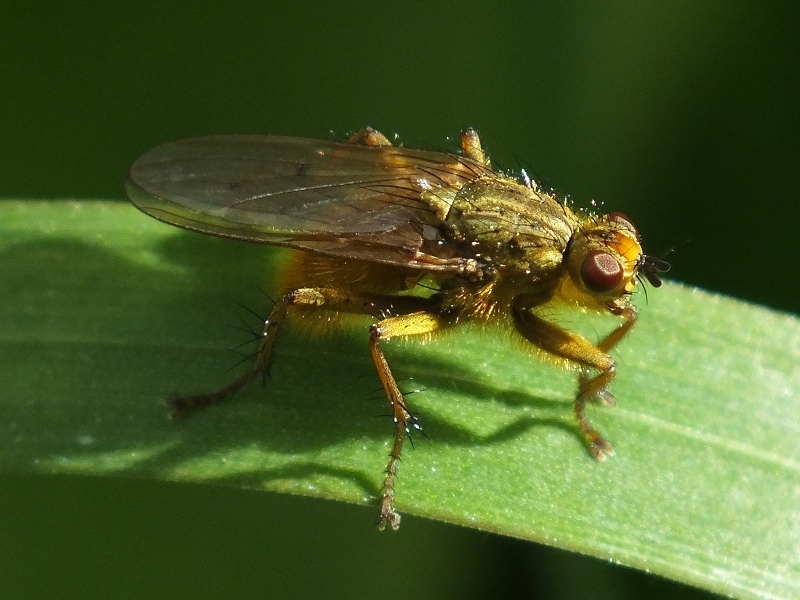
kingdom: Animalia
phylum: Arthropoda
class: Insecta
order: Diptera
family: Scathophagidae
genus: Scathophaga
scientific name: Scathophaga stercoraria
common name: Yellow dung fly
